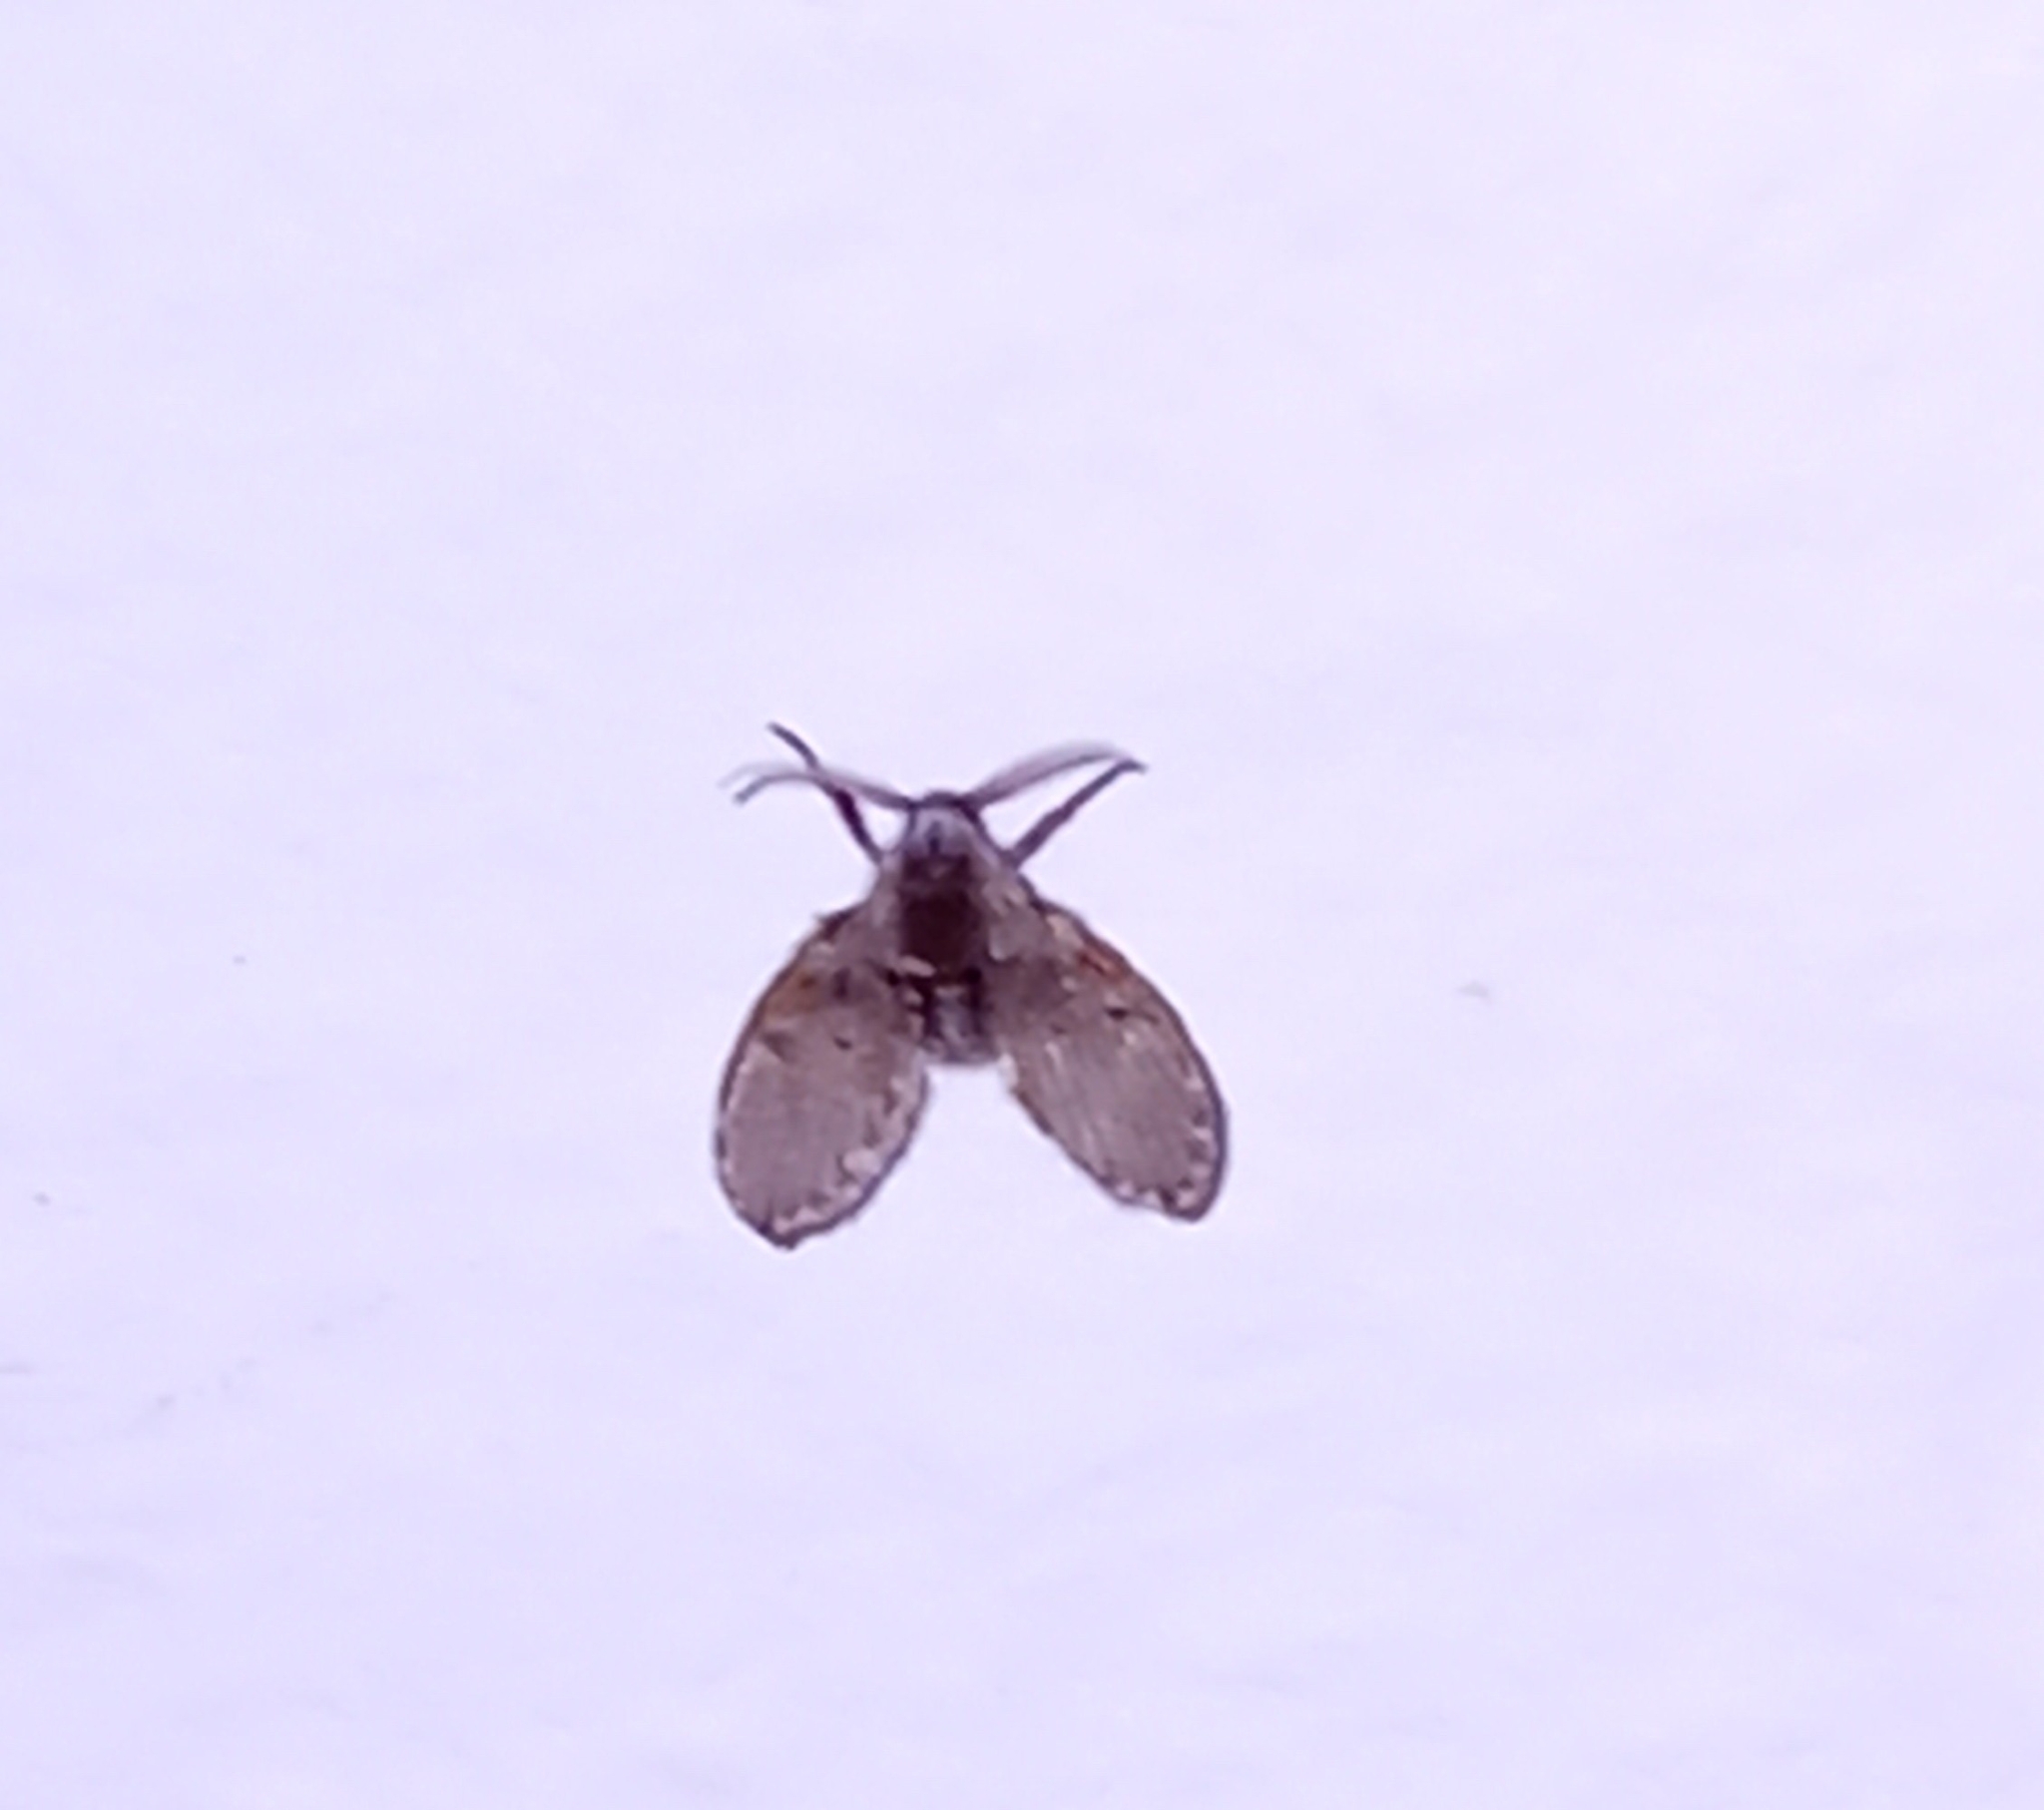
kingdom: Animalia
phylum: Arthropoda
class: Insecta
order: Diptera
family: Psychodidae
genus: Clogmia
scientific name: Clogmia albipunctatus
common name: White-spotted moth fly
